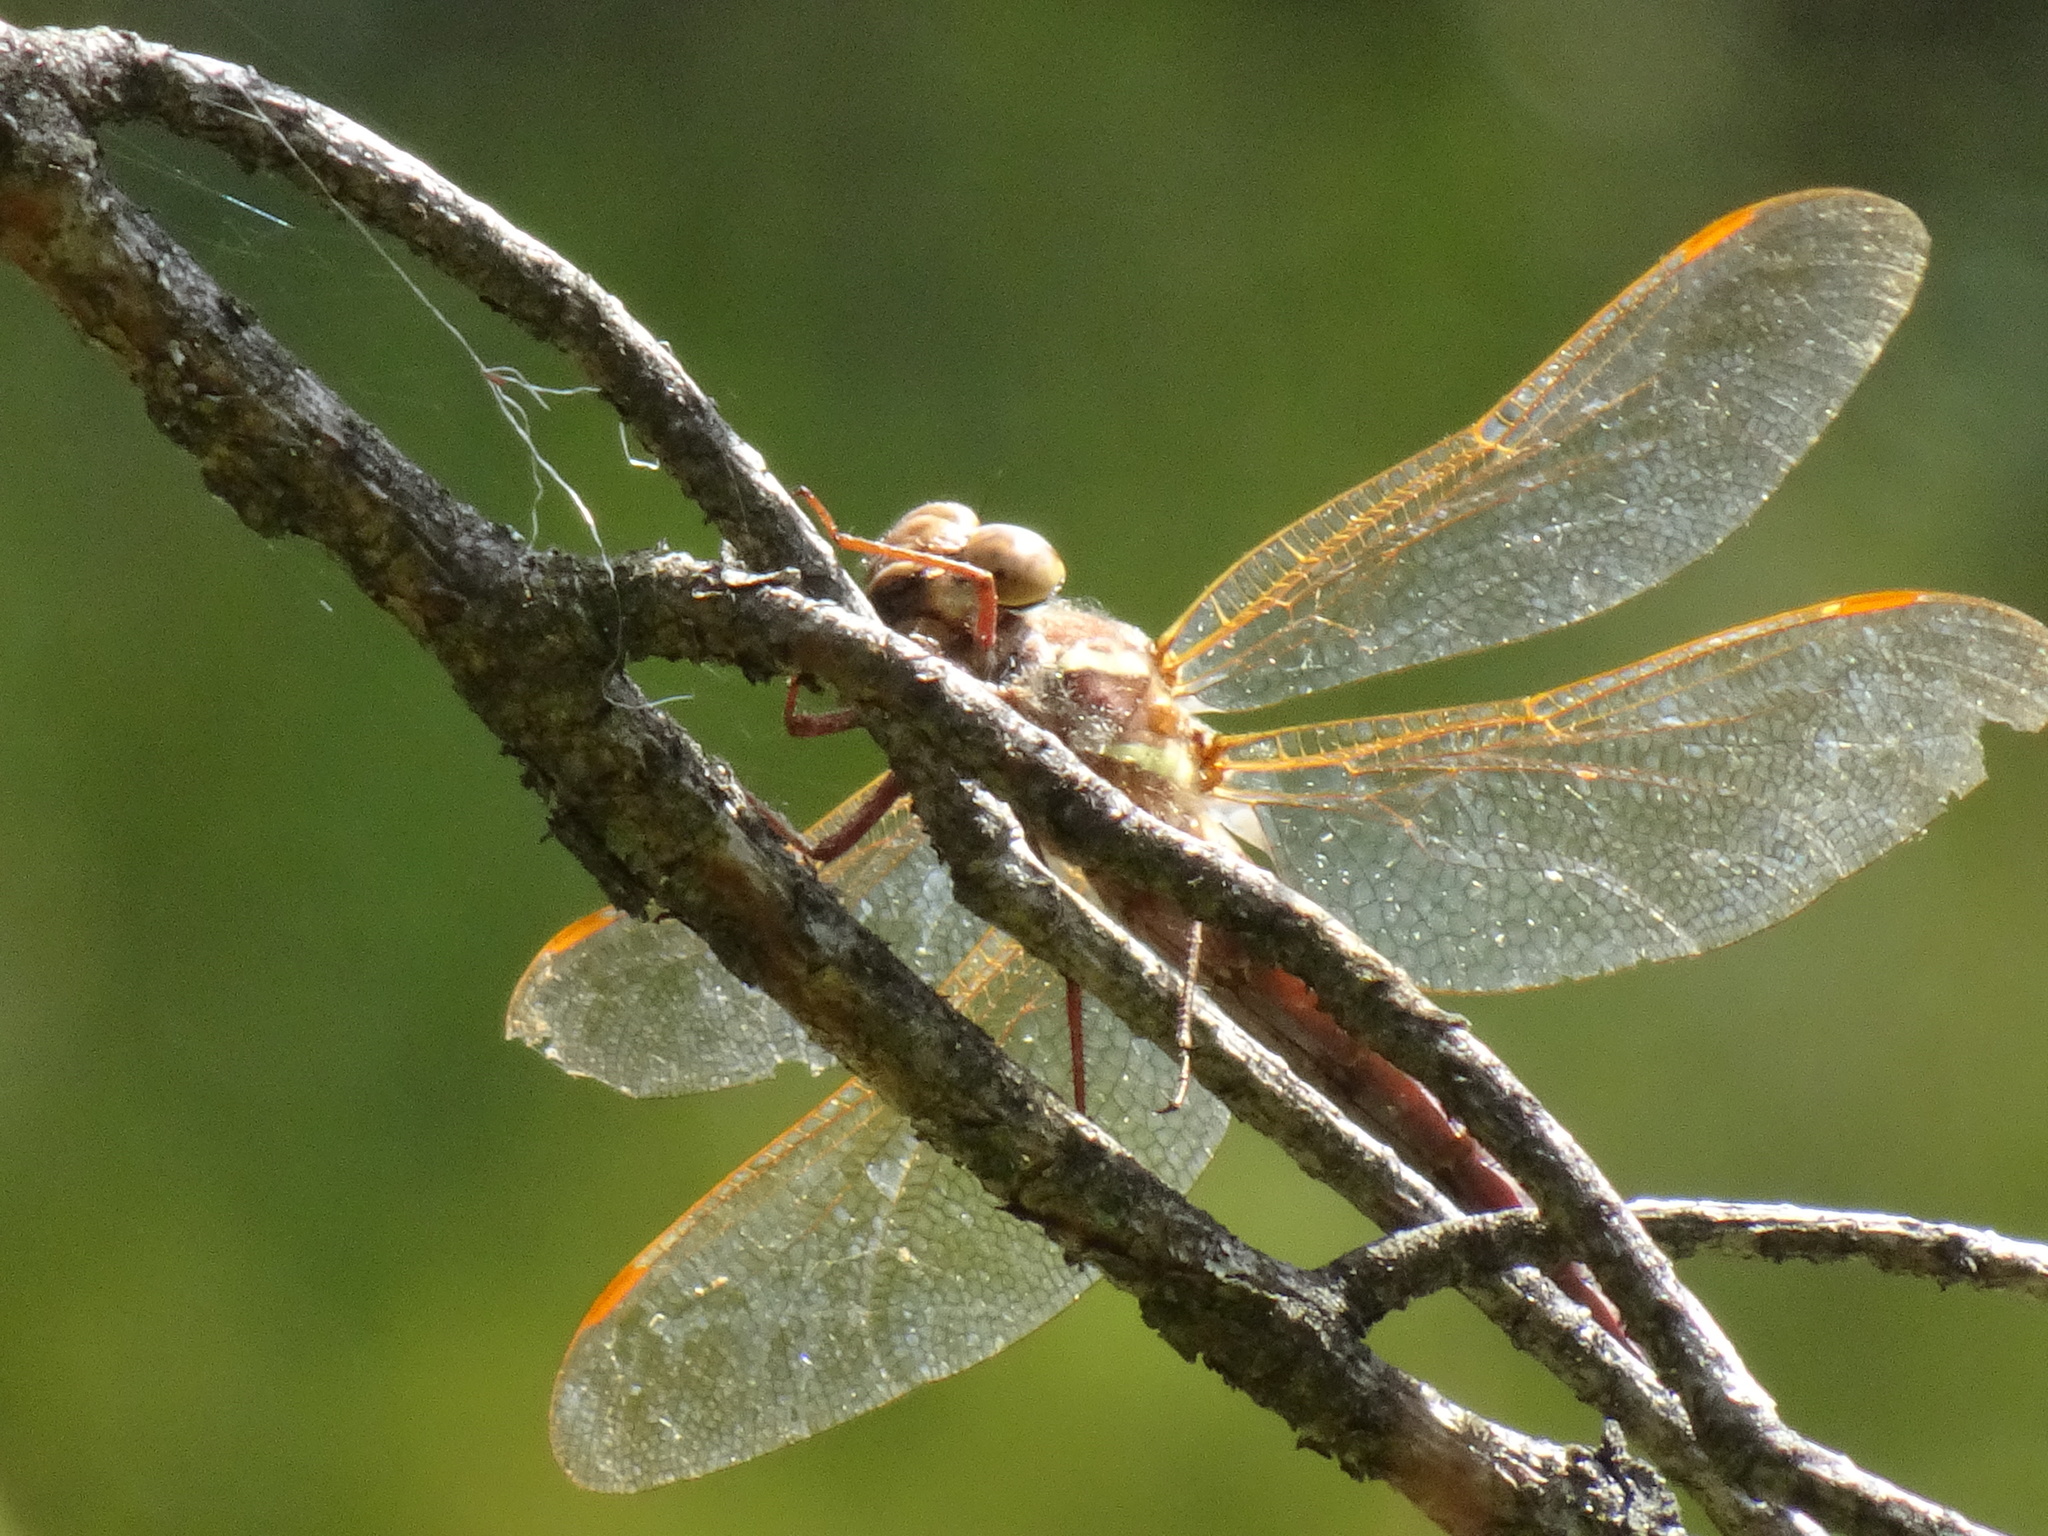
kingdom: Animalia
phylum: Arthropoda
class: Insecta
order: Odonata
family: Aeshnidae
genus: Aeshna
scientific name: Aeshna grandis
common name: Brown hawker
